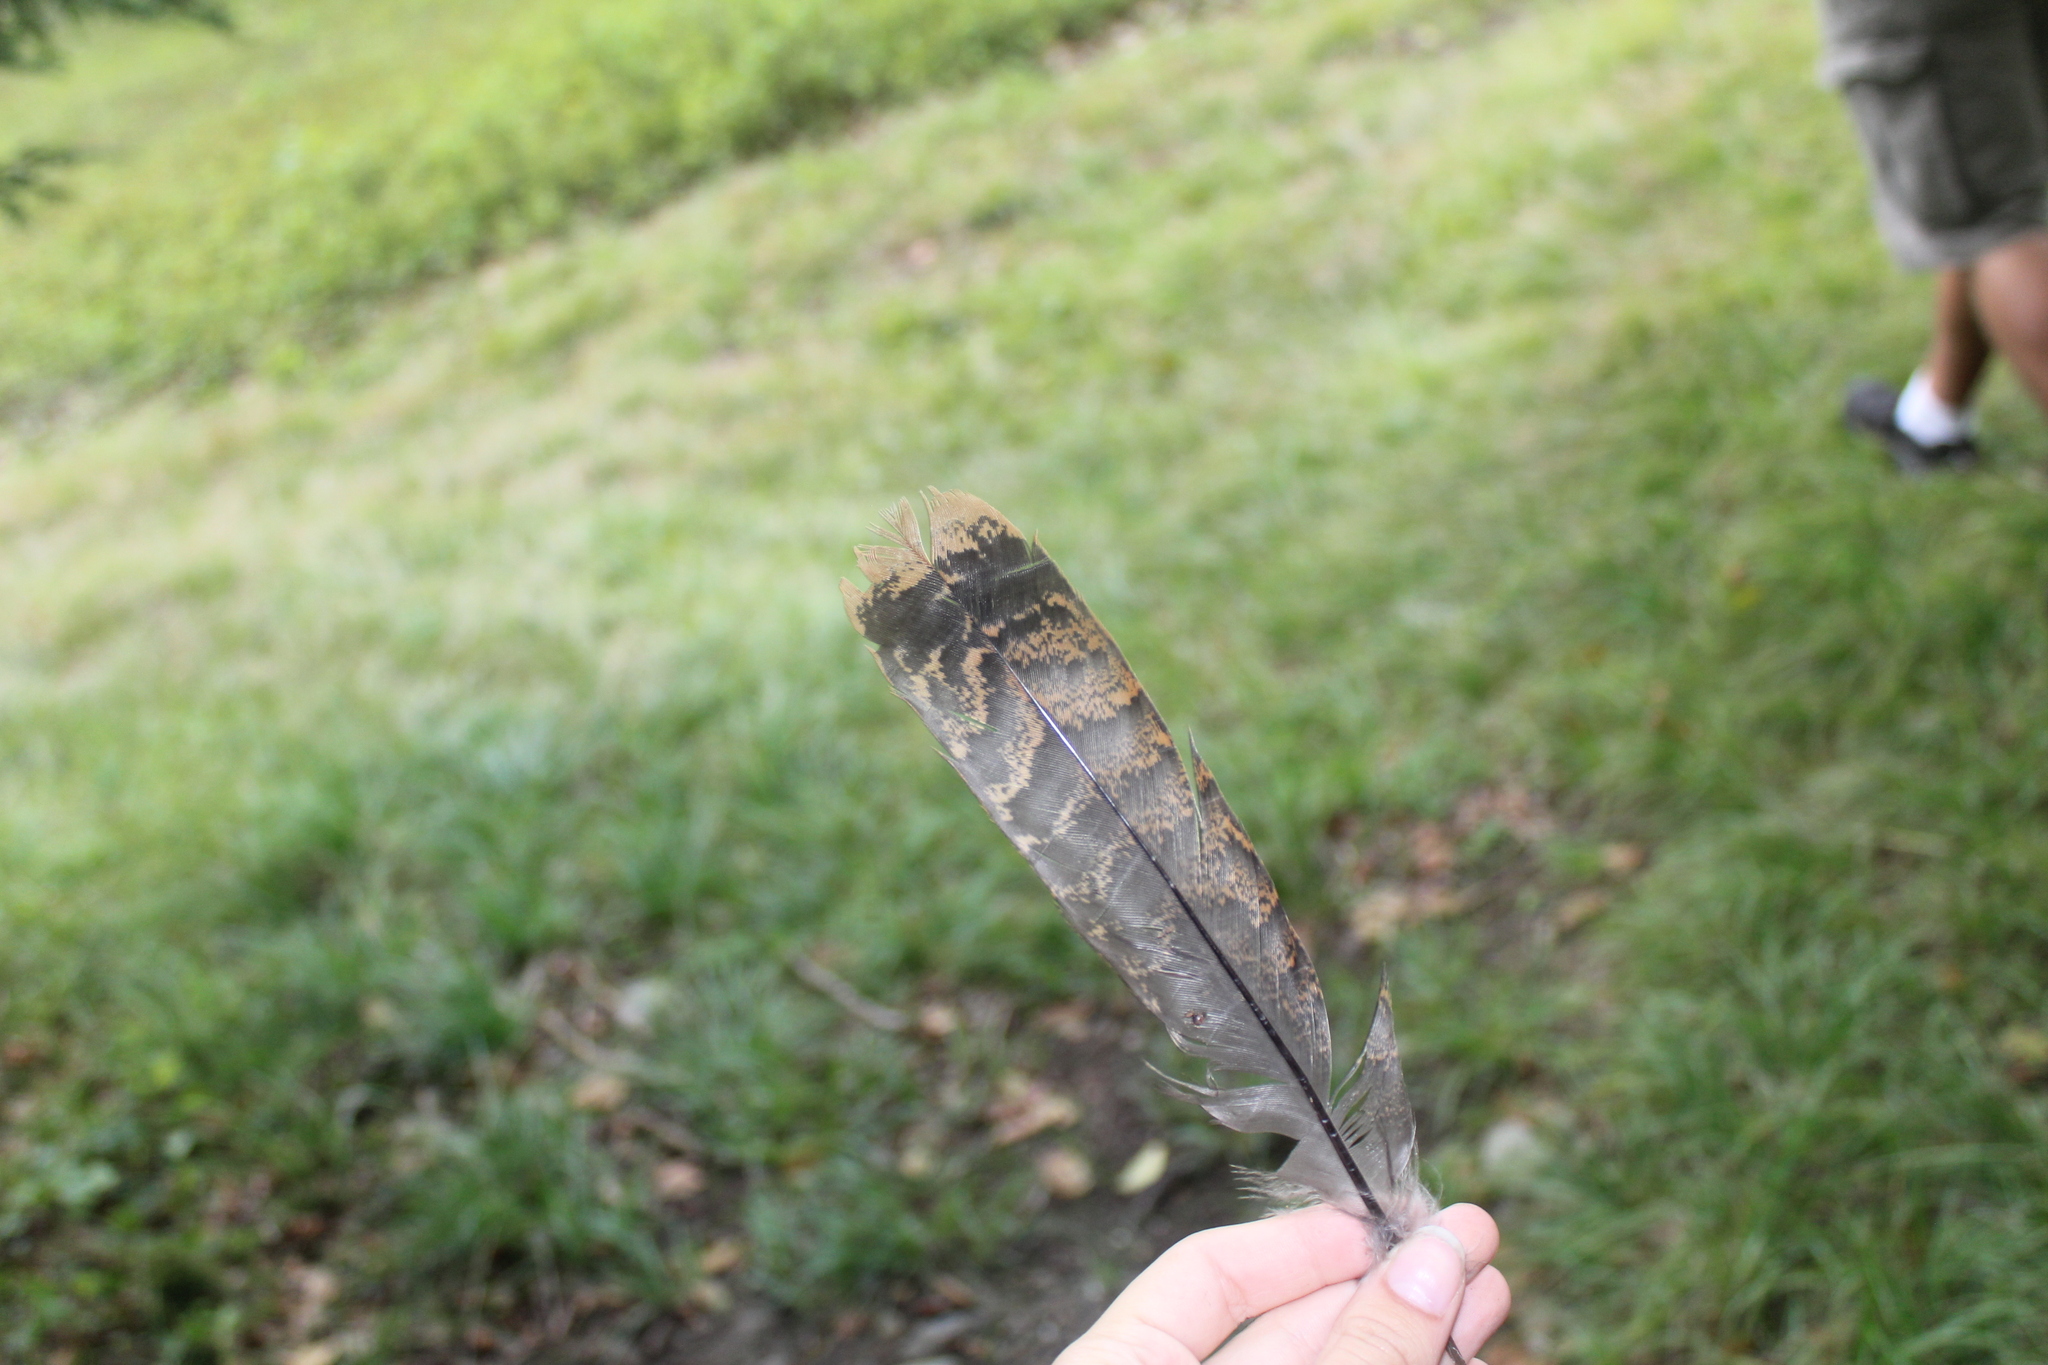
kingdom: Animalia
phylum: Chordata
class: Aves
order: Galliformes
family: Phasianidae
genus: Meleagris
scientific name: Meleagris gallopavo
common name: Wild turkey
